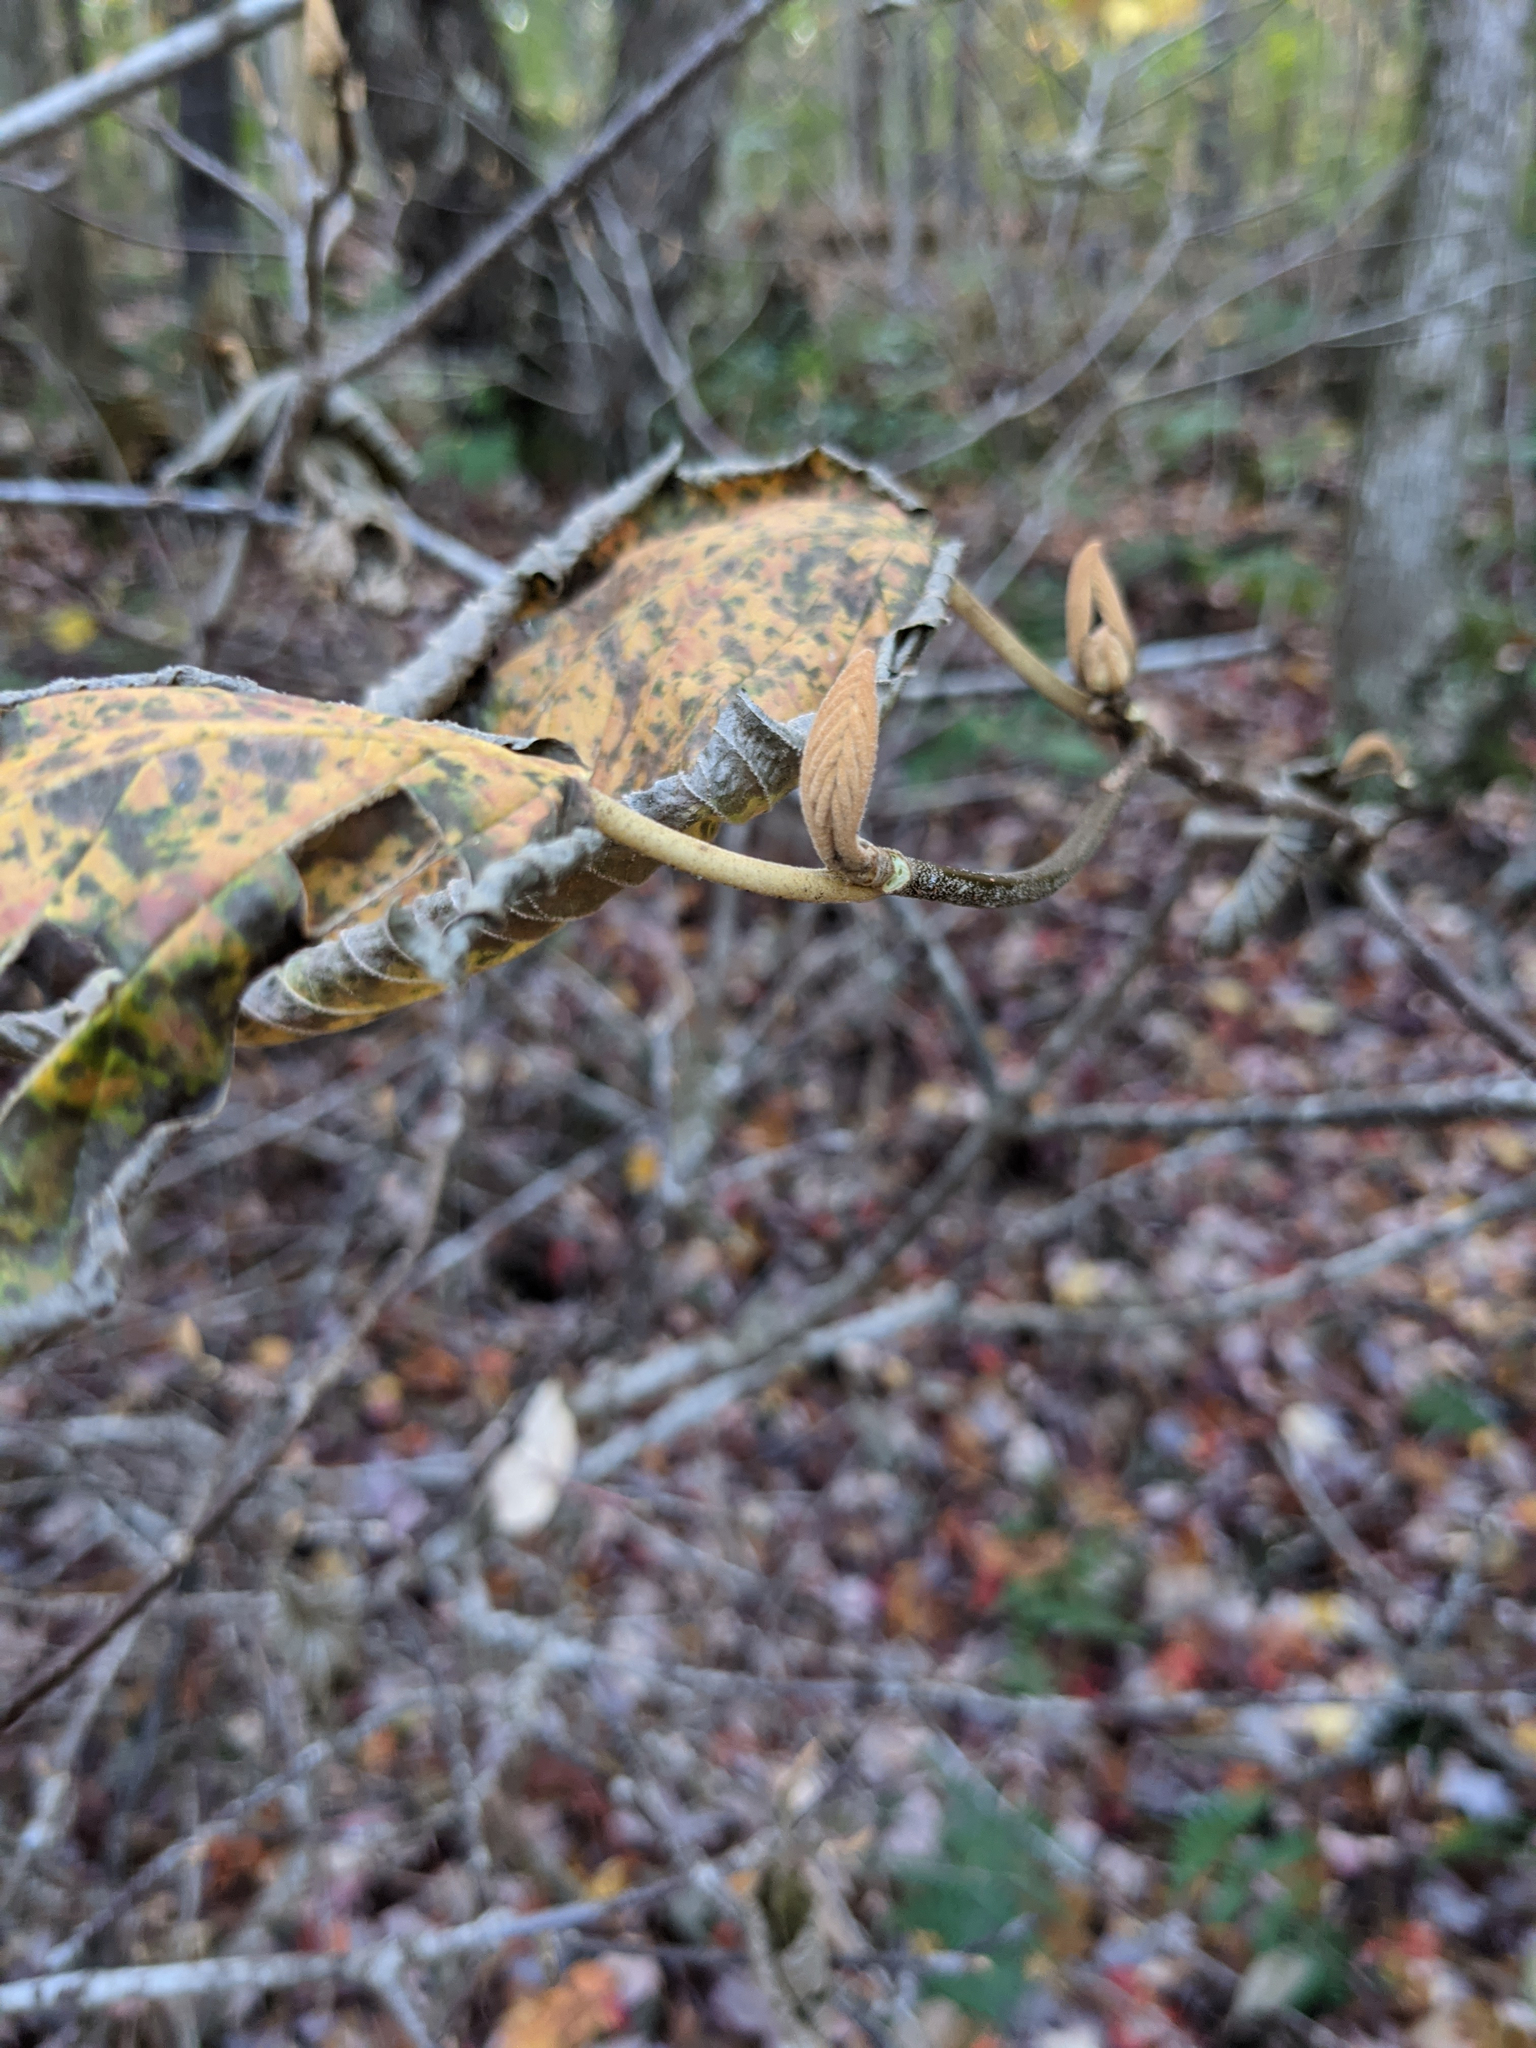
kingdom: Plantae
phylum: Tracheophyta
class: Magnoliopsida
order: Dipsacales
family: Viburnaceae
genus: Viburnum
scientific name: Viburnum lantanoides
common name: Hobblebush
